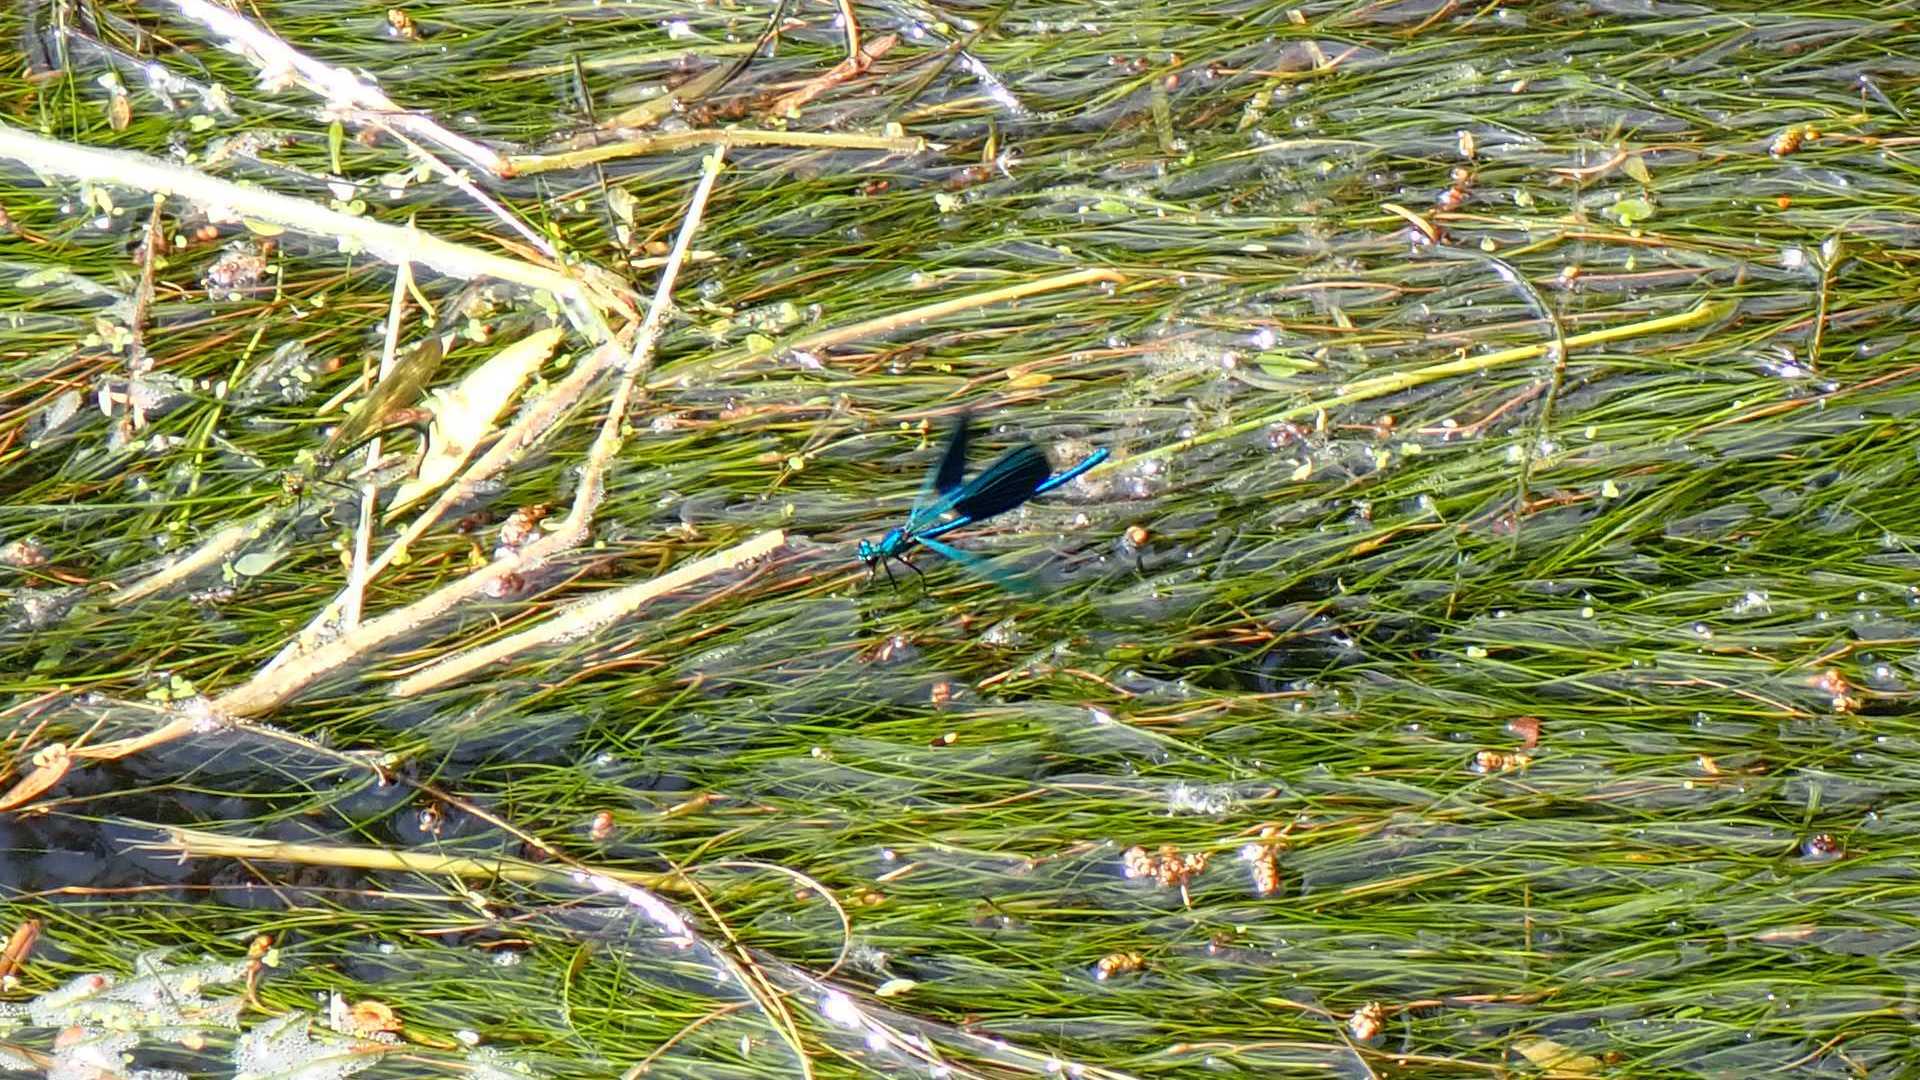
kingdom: Animalia
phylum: Arthropoda
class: Insecta
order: Odonata
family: Calopterygidae
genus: Calopteryx
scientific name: Calopteryx splendens
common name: Banded demoiselle
